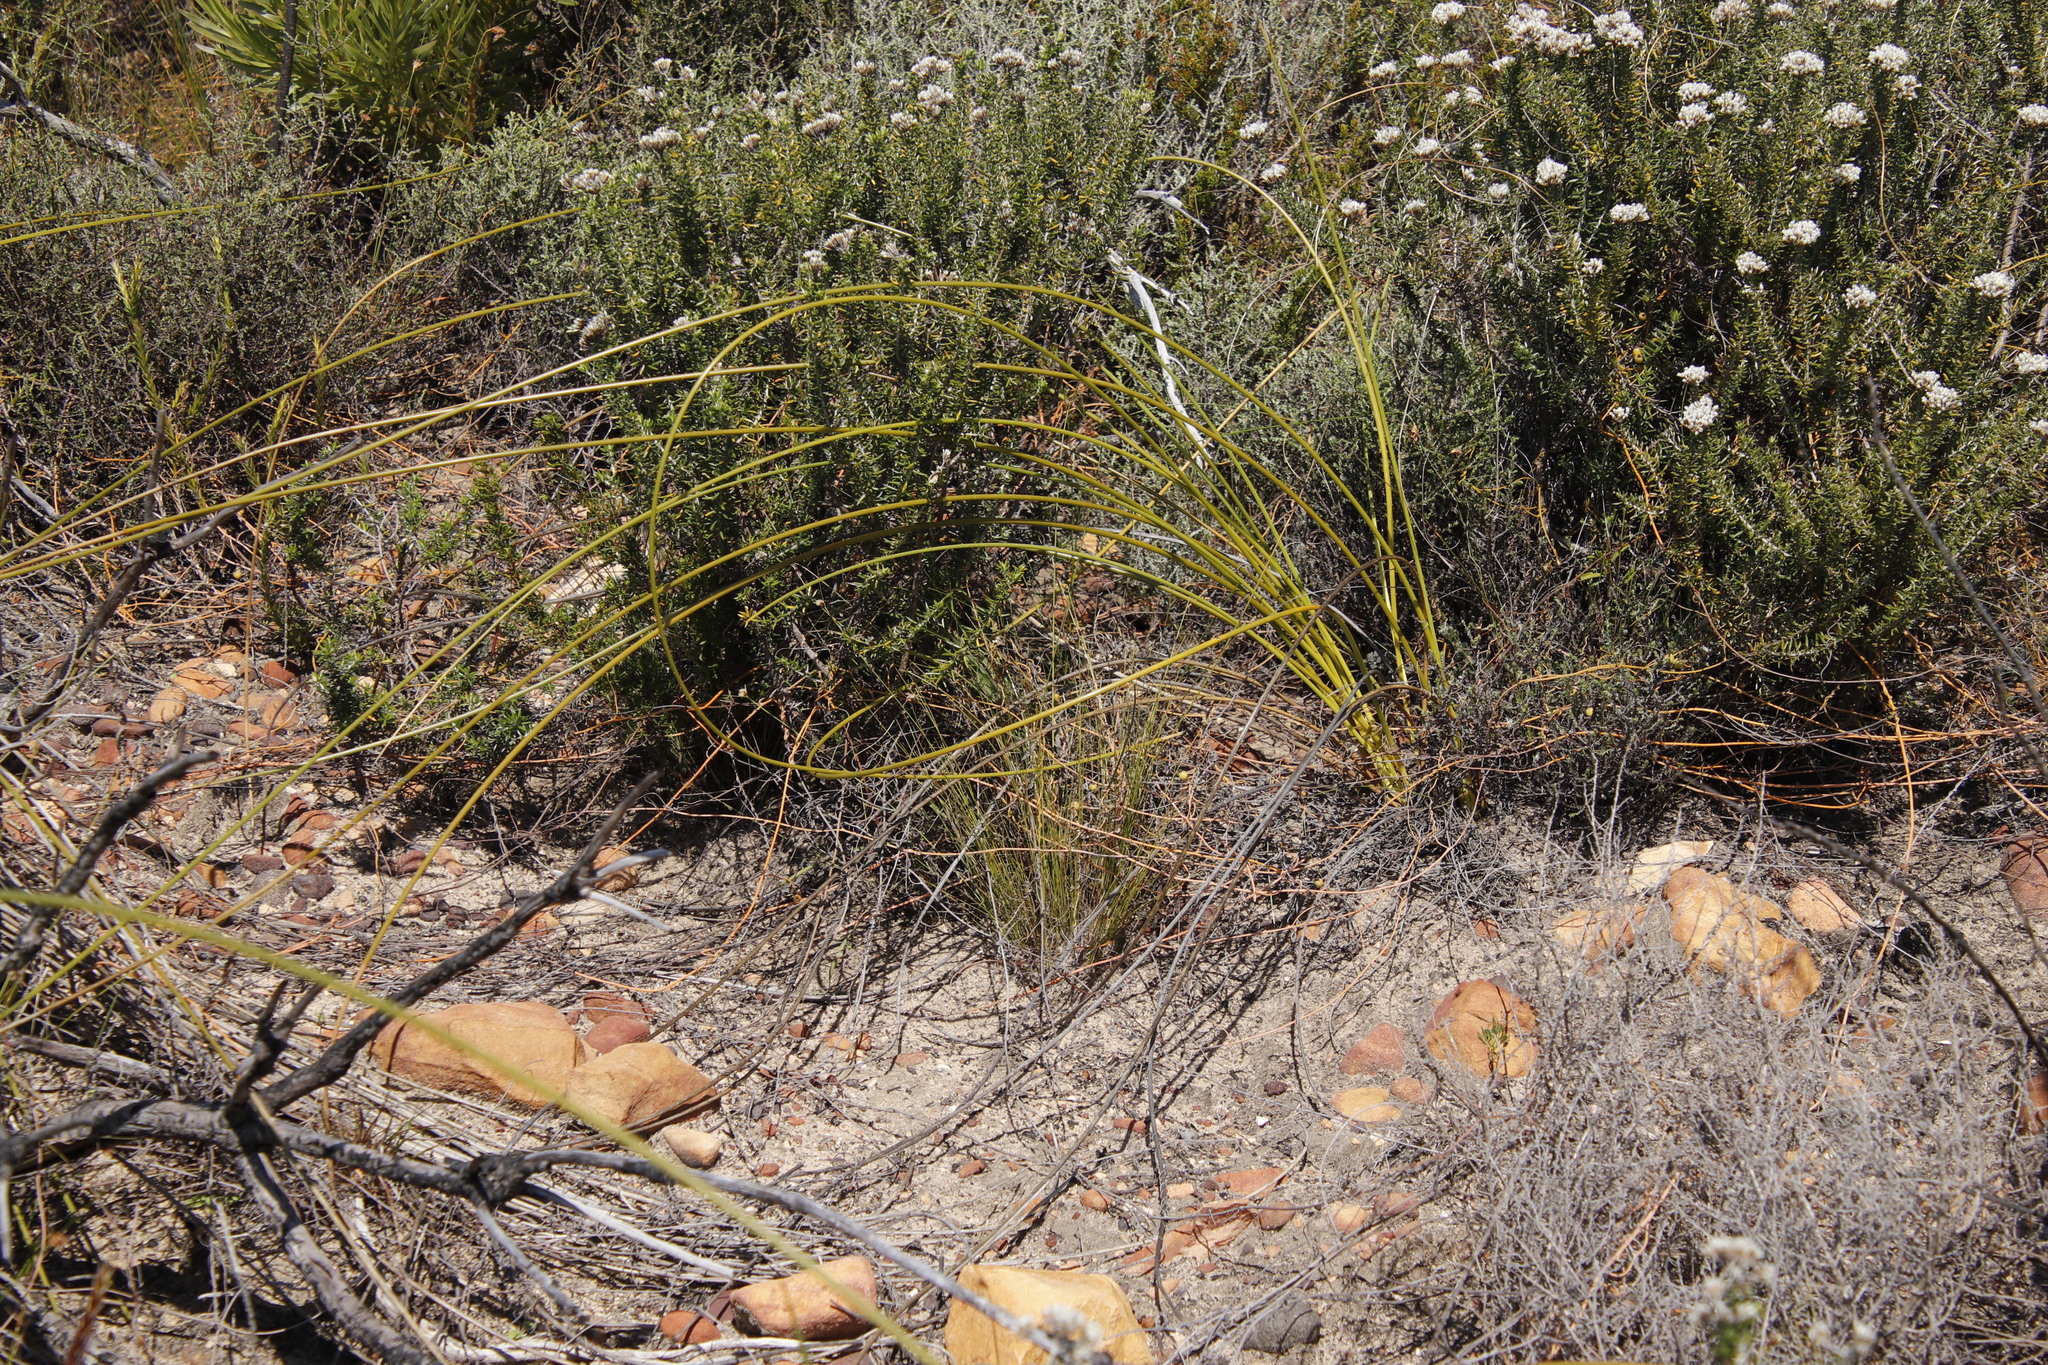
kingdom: Plantae
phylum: Tracheophyta
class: Liliopsida
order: Asparagales
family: Iridaceae
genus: Bobartia
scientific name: Bobartia indica
